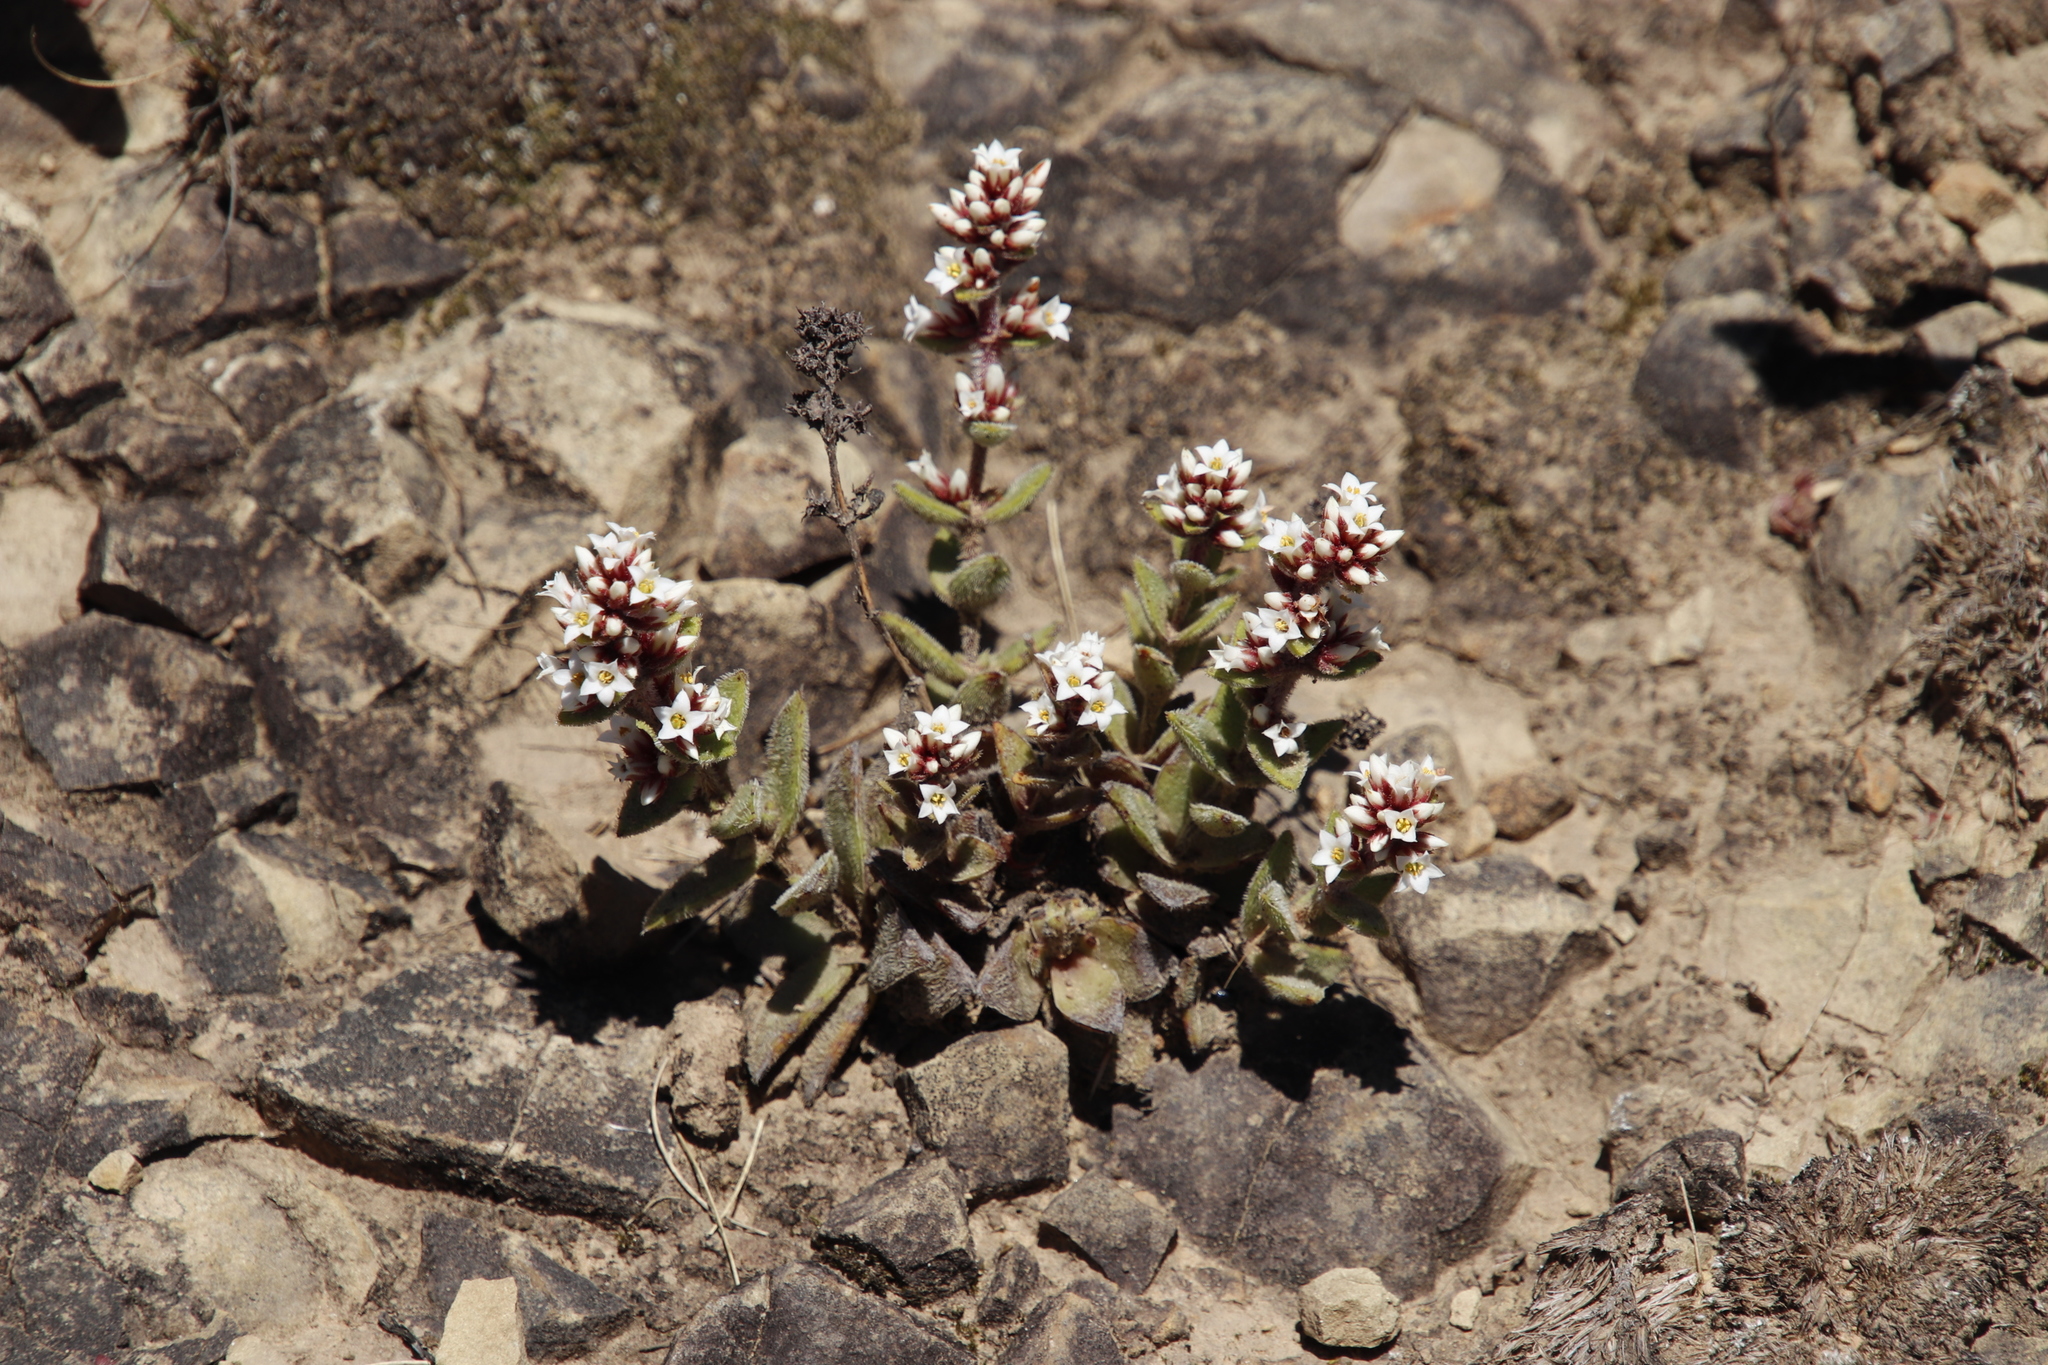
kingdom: Plantae
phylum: Tracheophyta
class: Magnoliopsida
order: Saxifragales
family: Crassulaceae
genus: Crassula
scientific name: Crassula obovata
